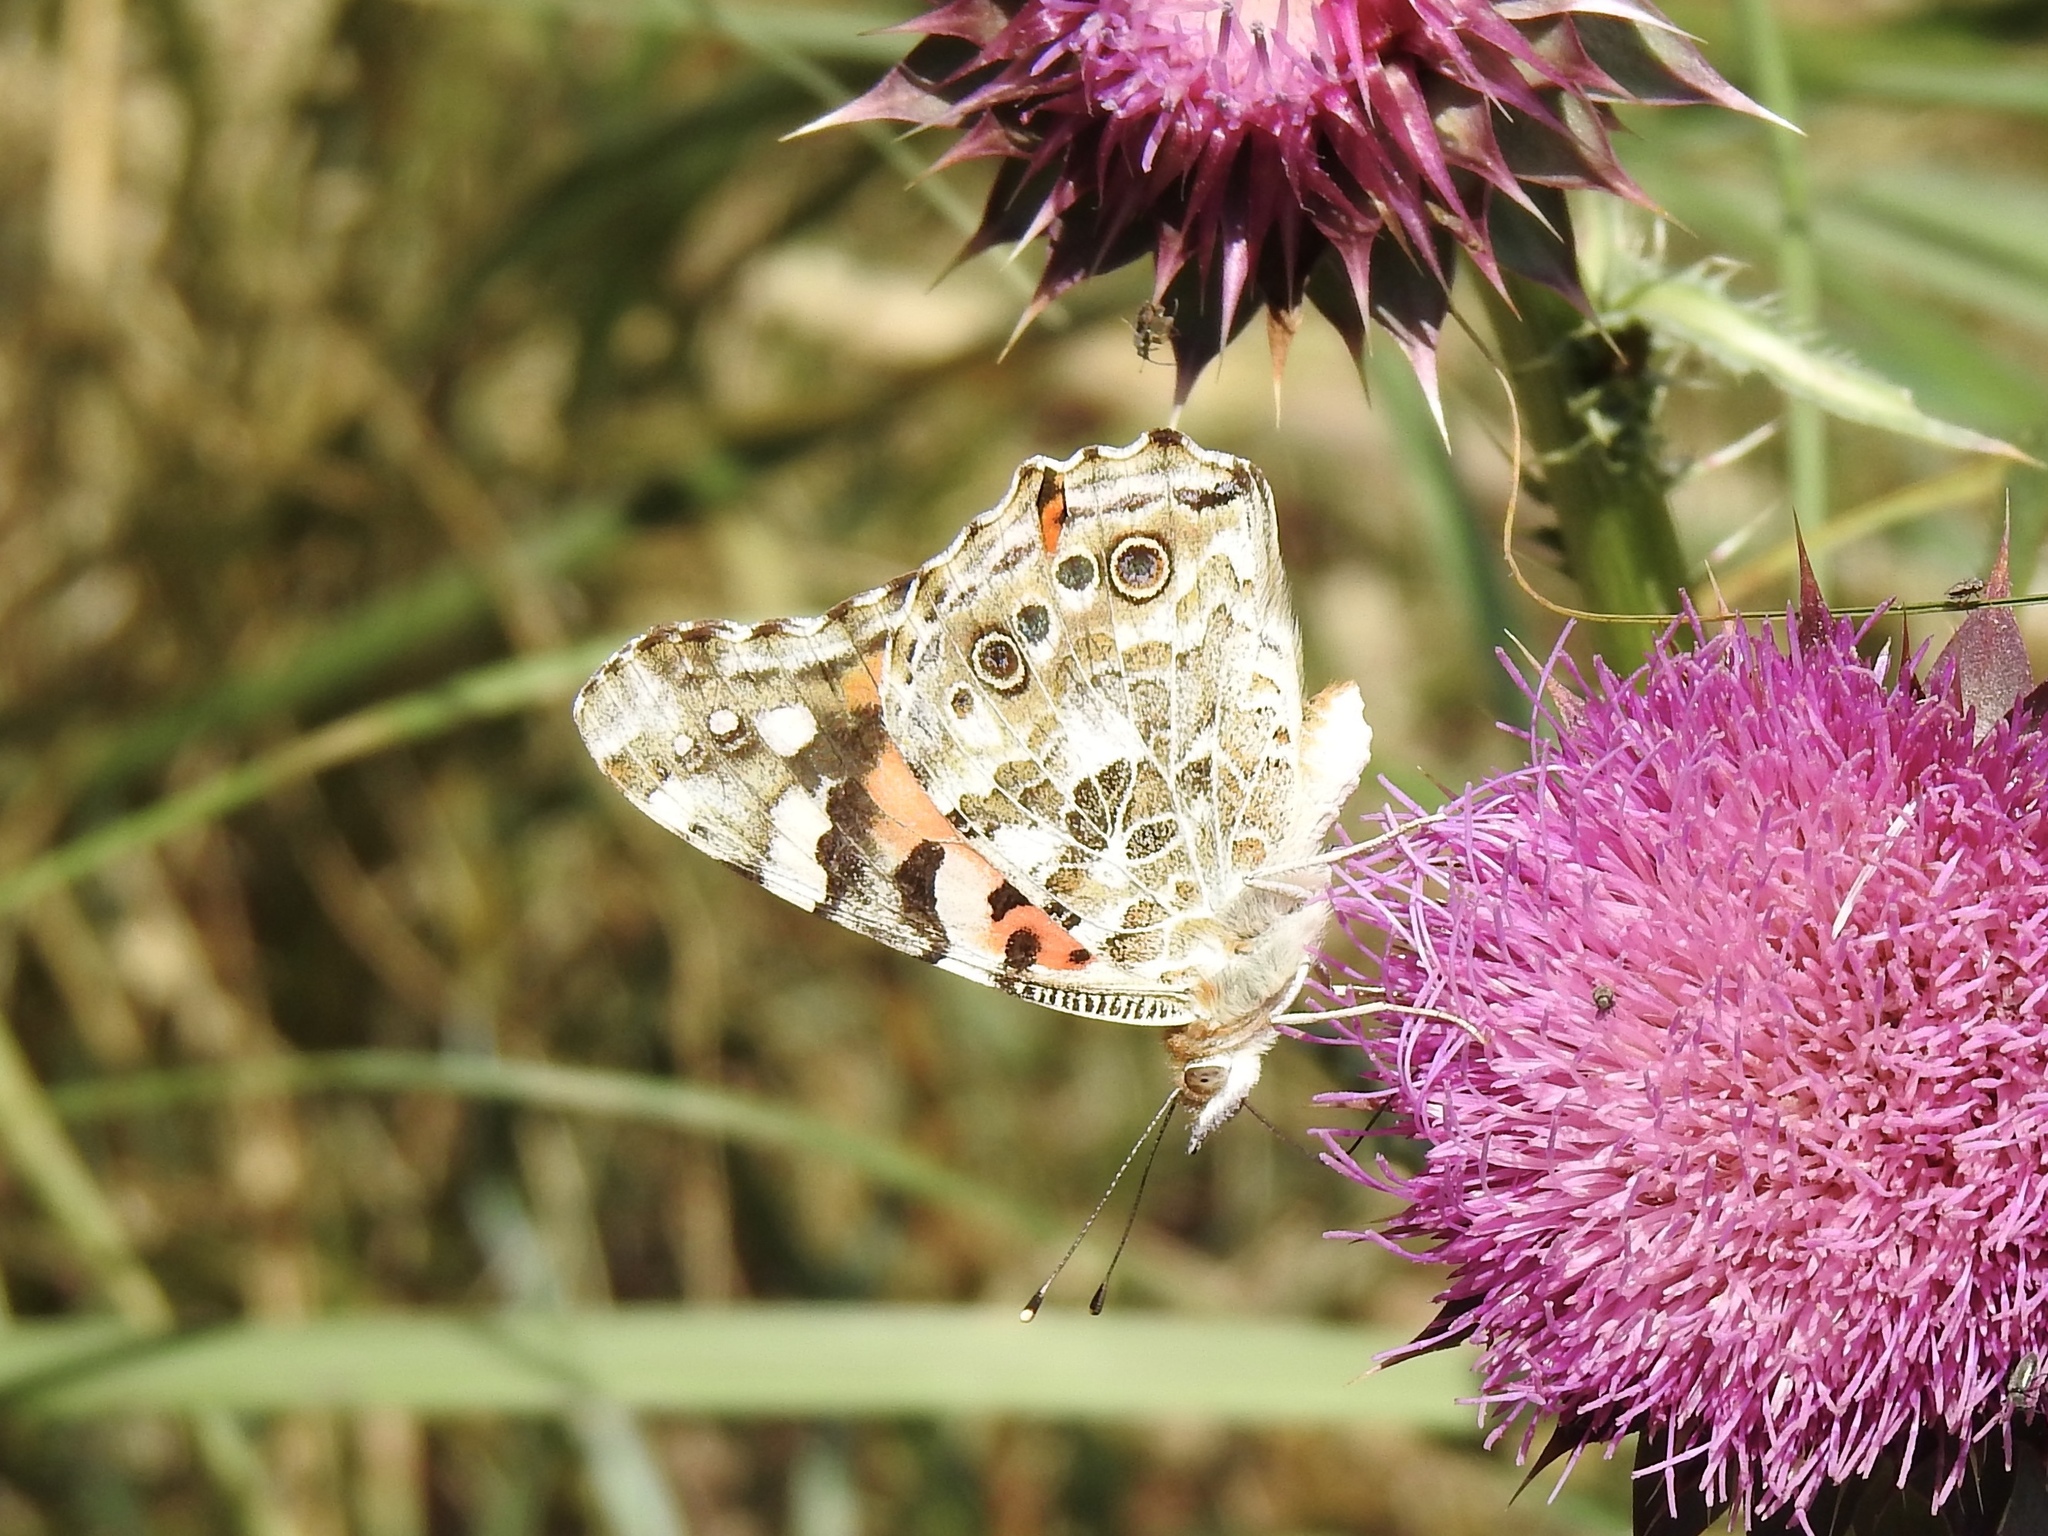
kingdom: Animalia
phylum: Arthropoda
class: Insecta
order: Lepidoptera
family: Nymphalidae
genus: Vanessa
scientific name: Vanessa cardui
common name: Painted lady
